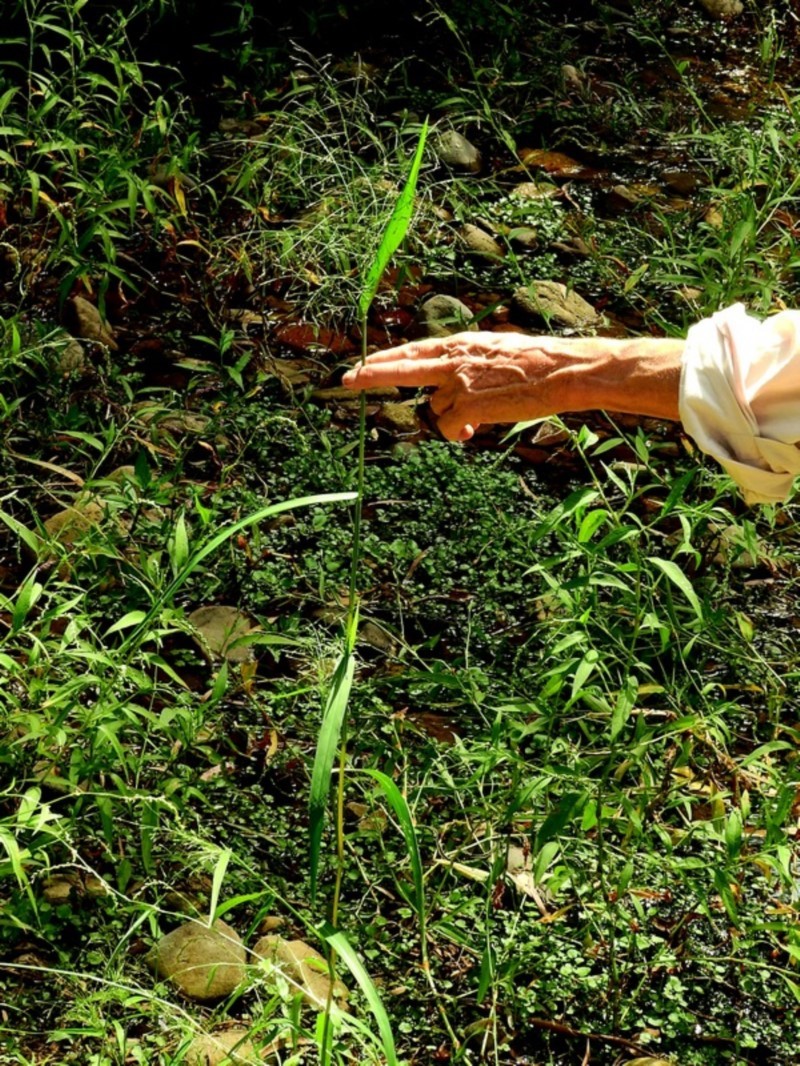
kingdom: Plantae
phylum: Tracheophyta
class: Liliopsida
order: Poales
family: Poaceae
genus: Panicum
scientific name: Panicum bisulcatum
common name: Japanese panicgrass
